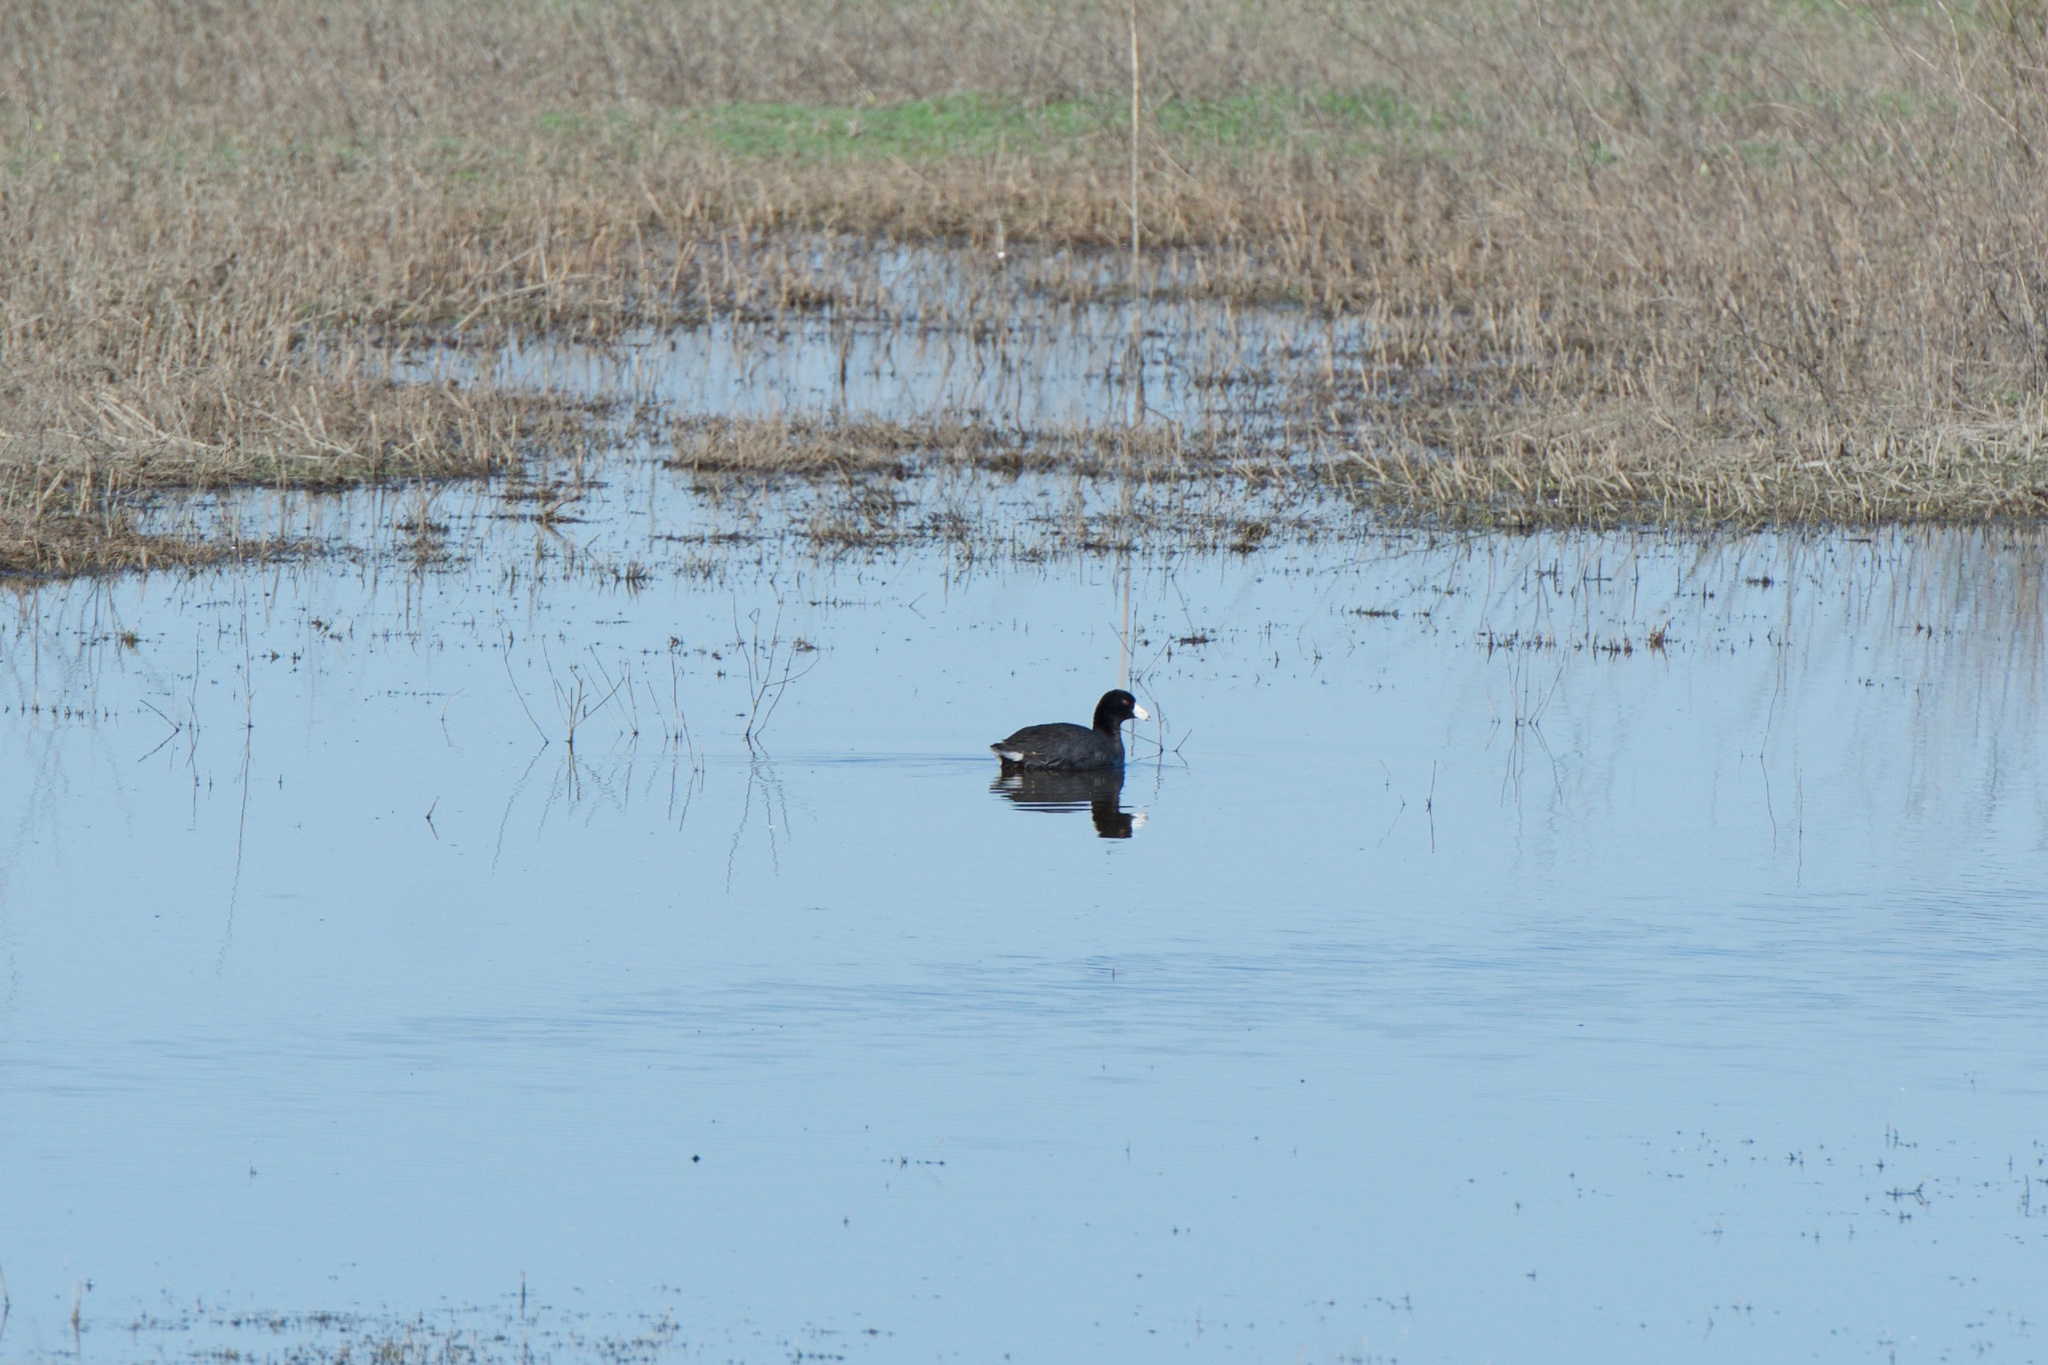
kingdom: Animalia
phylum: Chordata
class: Aves
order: Gruiformes
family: Rallidae
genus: Fulica
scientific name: Fulica americana
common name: American coot
